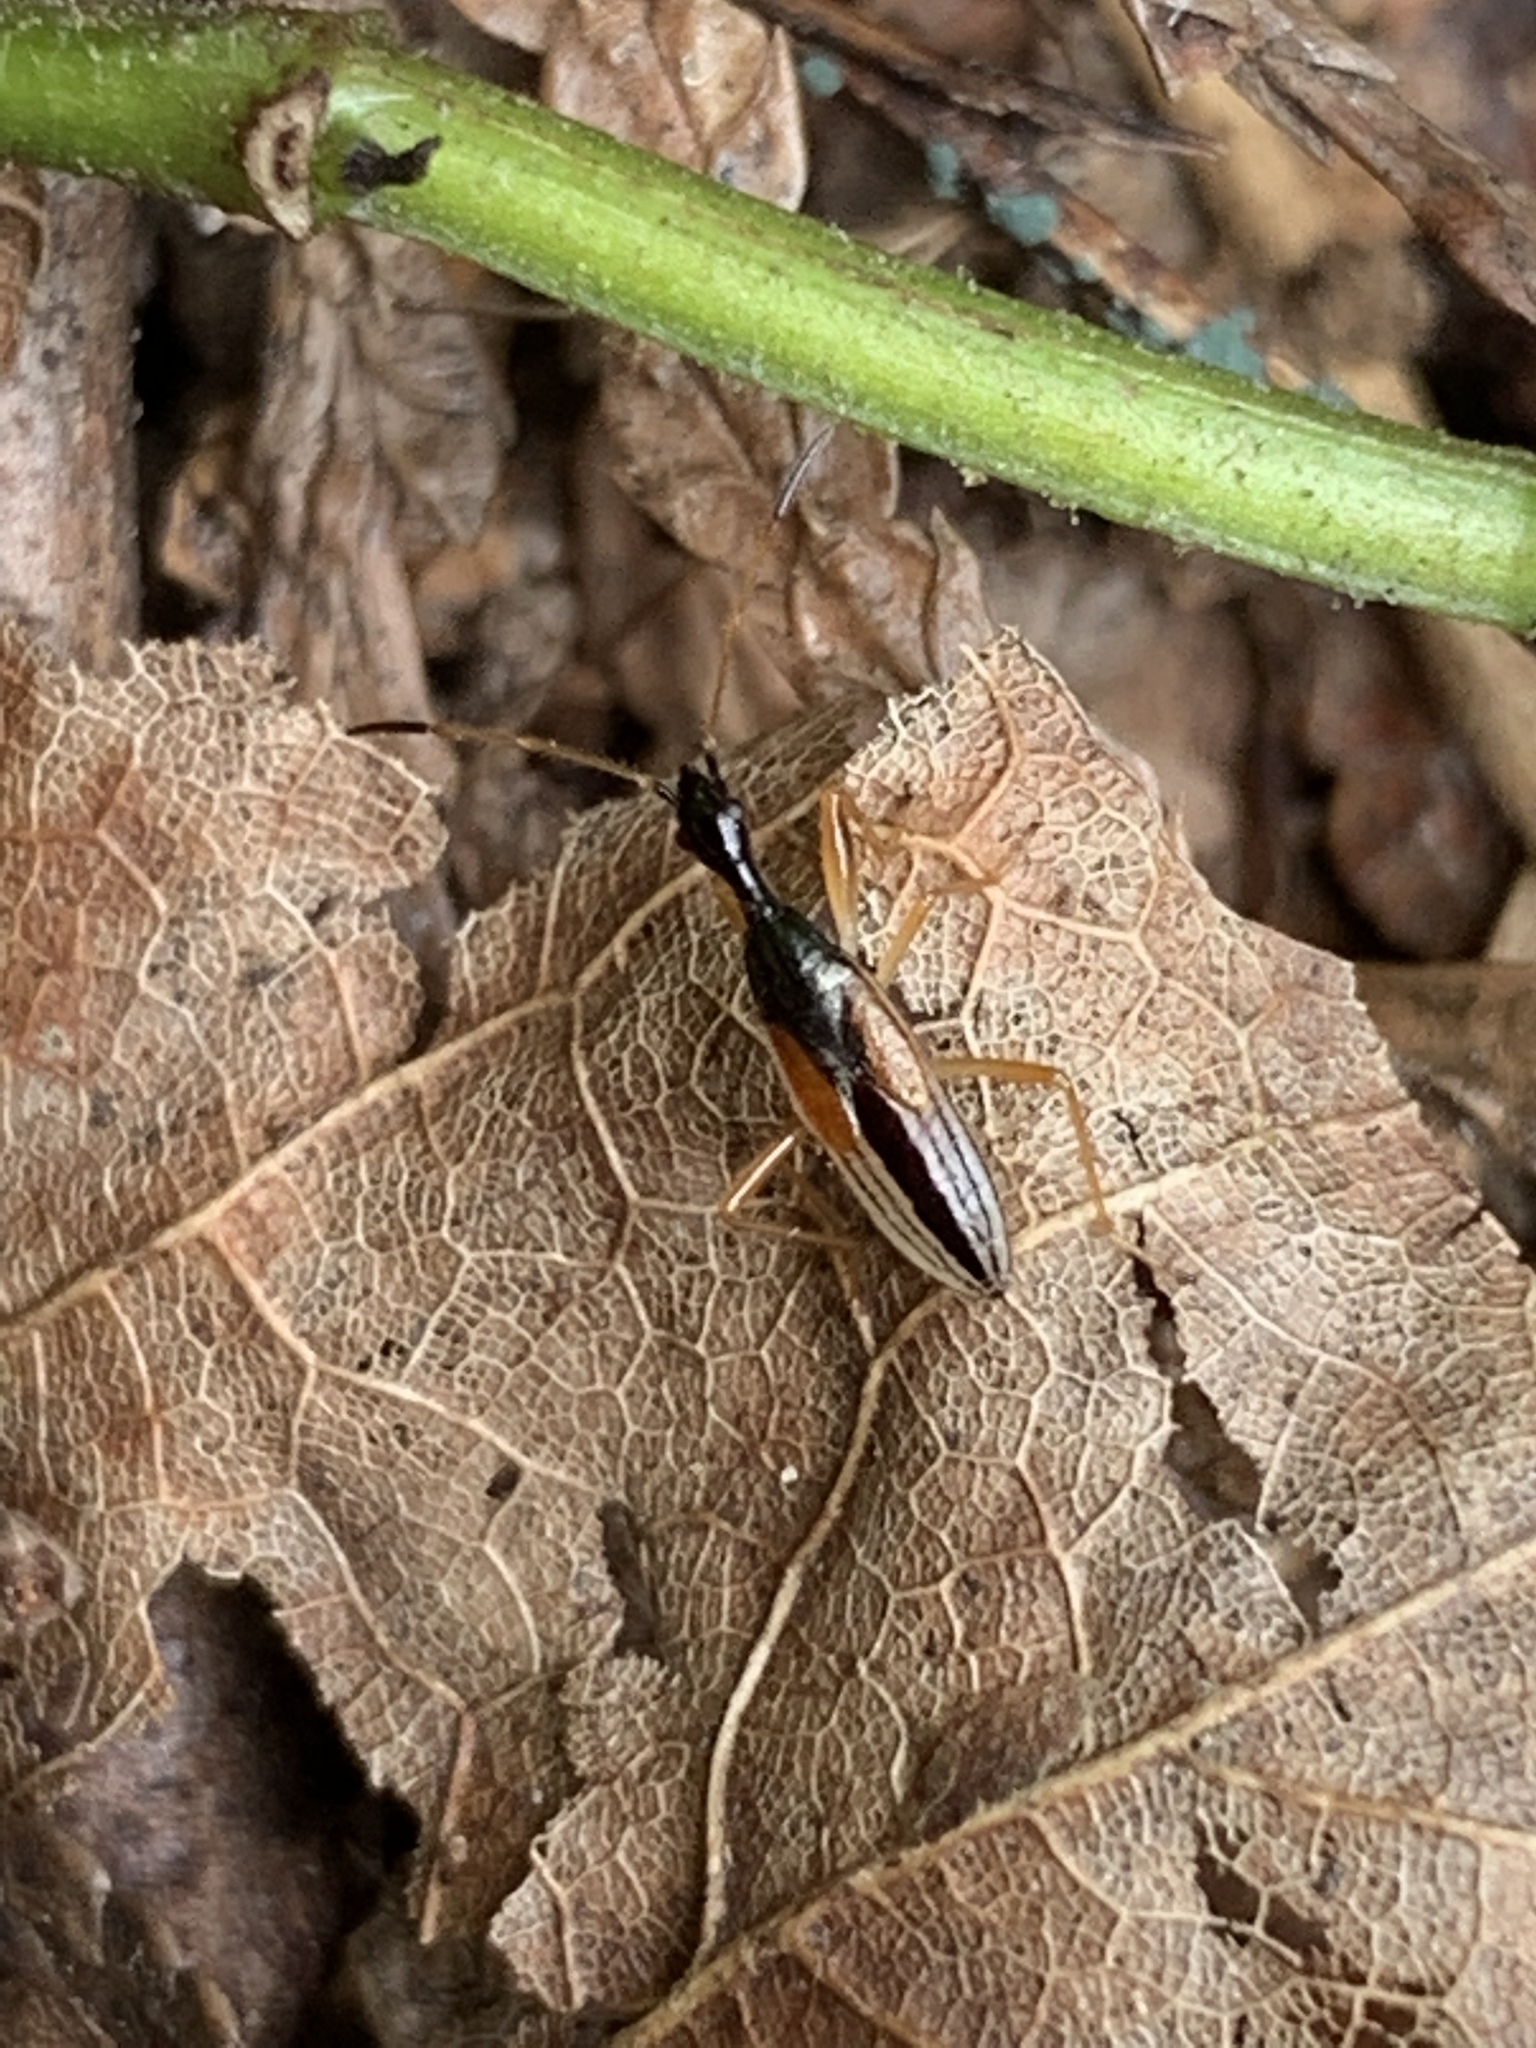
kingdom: Animalia
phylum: Arthropoda
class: Insecta
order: Hemiptera
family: Rhyparochromidae
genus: Myodocha
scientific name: Myodocha serripes
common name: Long-necked seed bug
